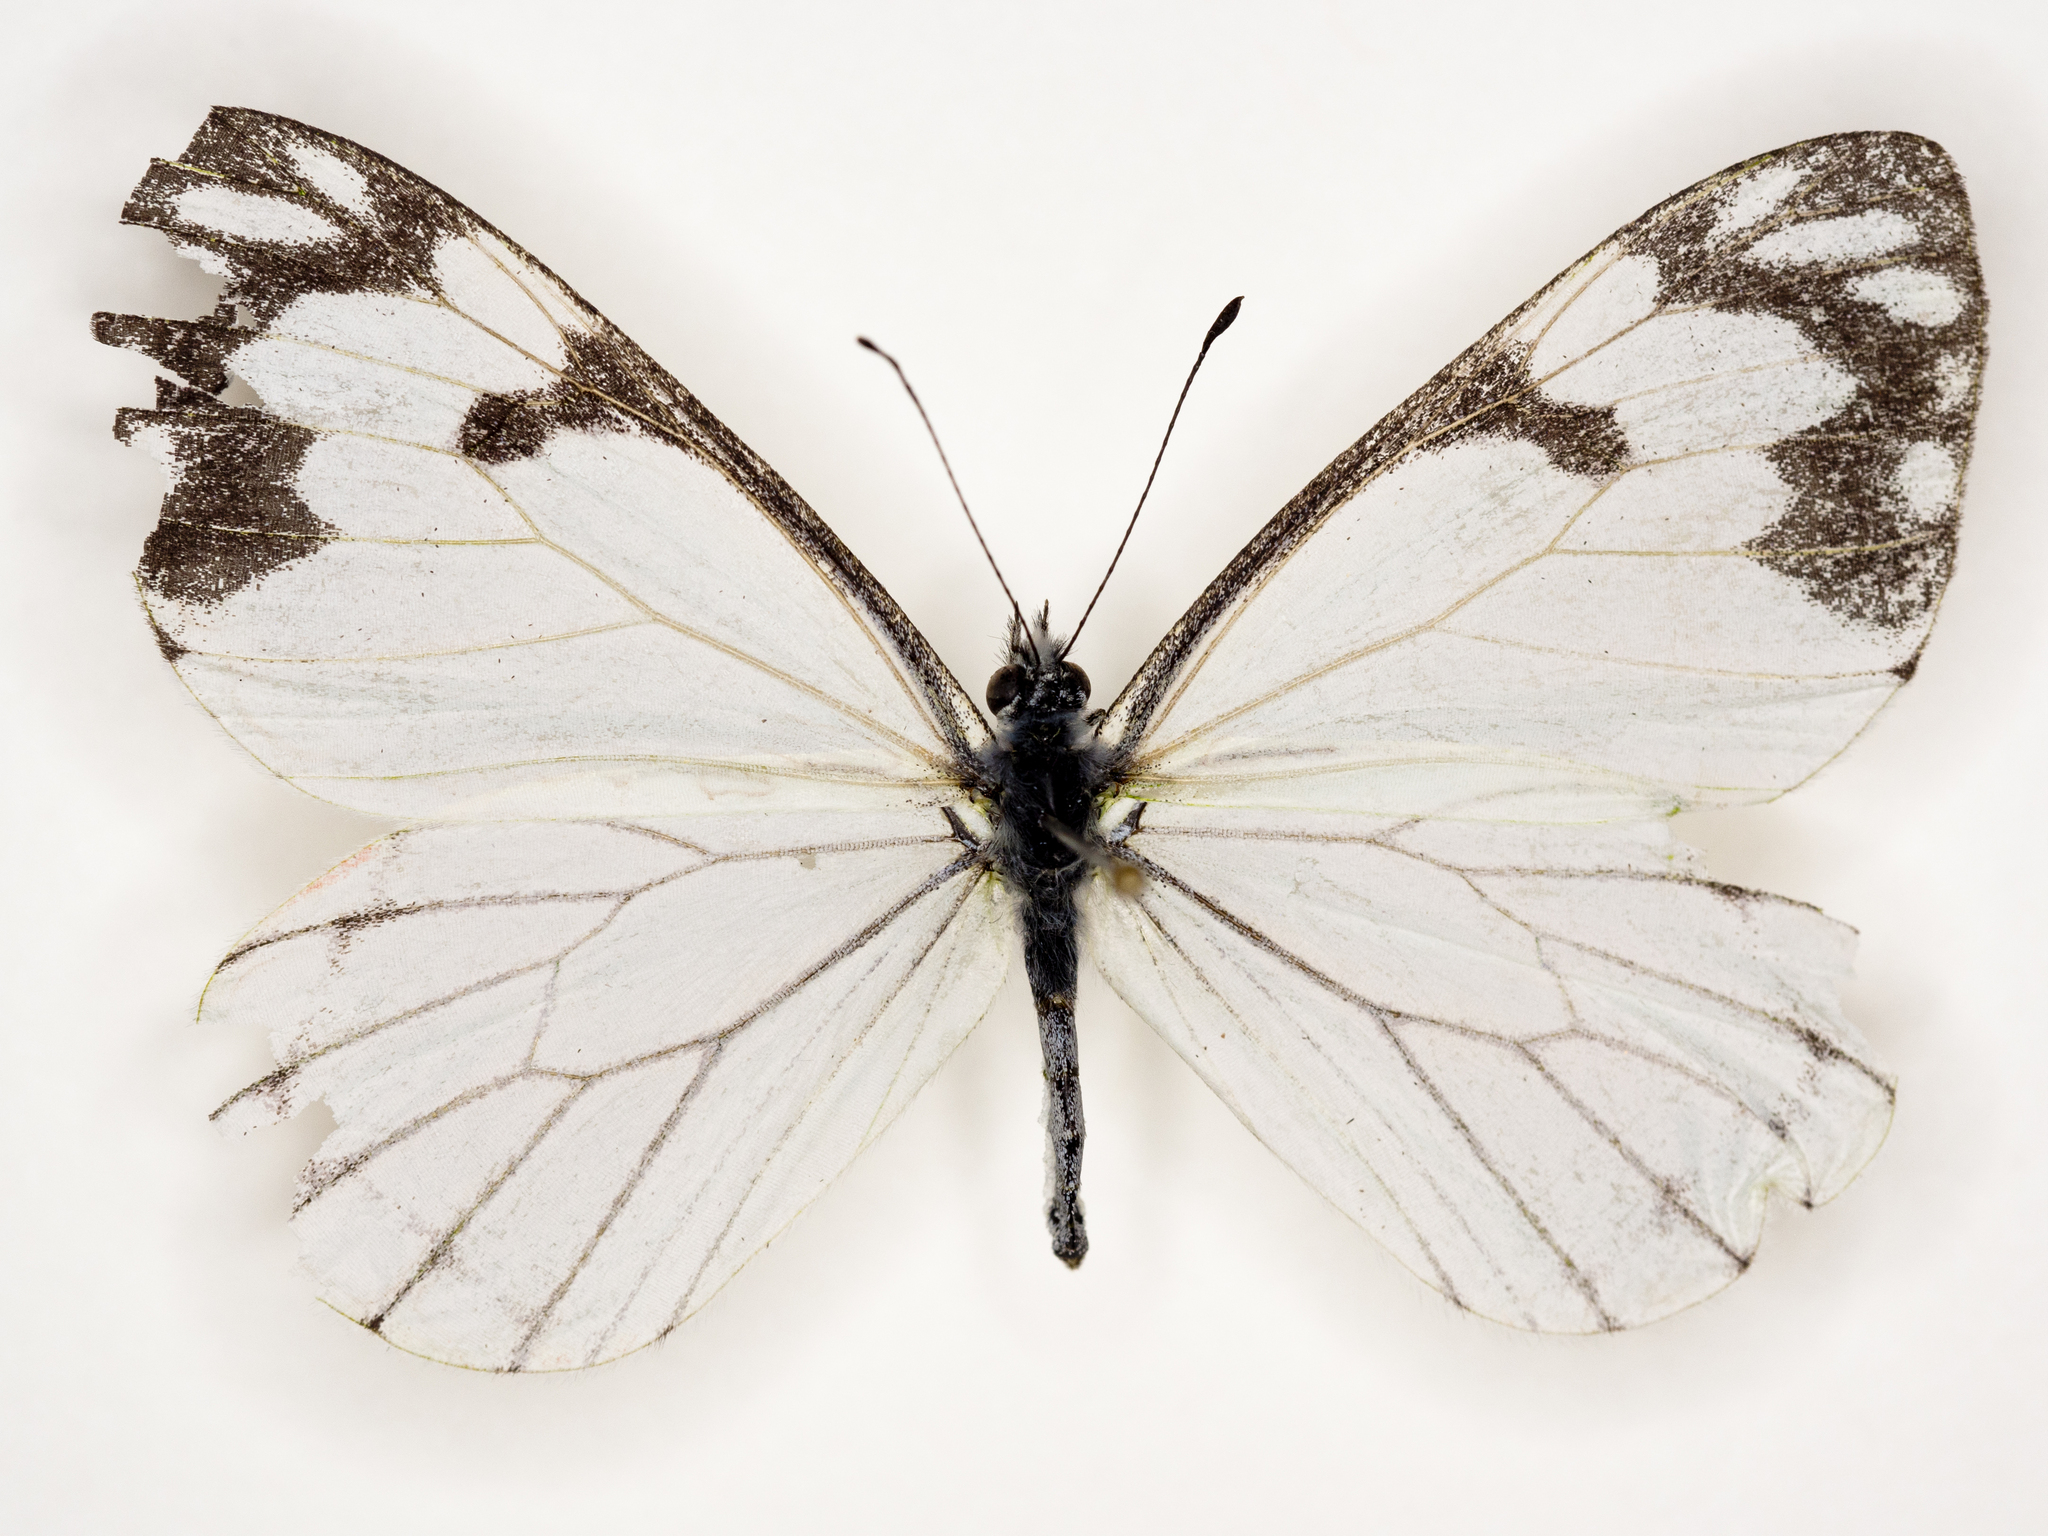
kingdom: Animalia
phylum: Arthropoda
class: Insecta
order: Lepidoptera
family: Pieridae
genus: Neophasia
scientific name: Neophasia menapia
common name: Pine white
